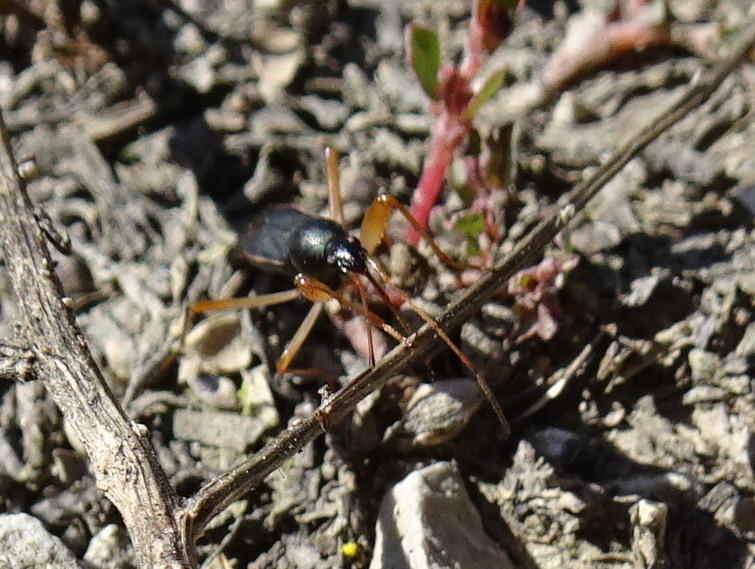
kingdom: Animalia
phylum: Arthropoda
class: Insecta
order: Hemiptera
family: Rhyparochromidae
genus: Cnemodus
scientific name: Cnemodus mavortius
